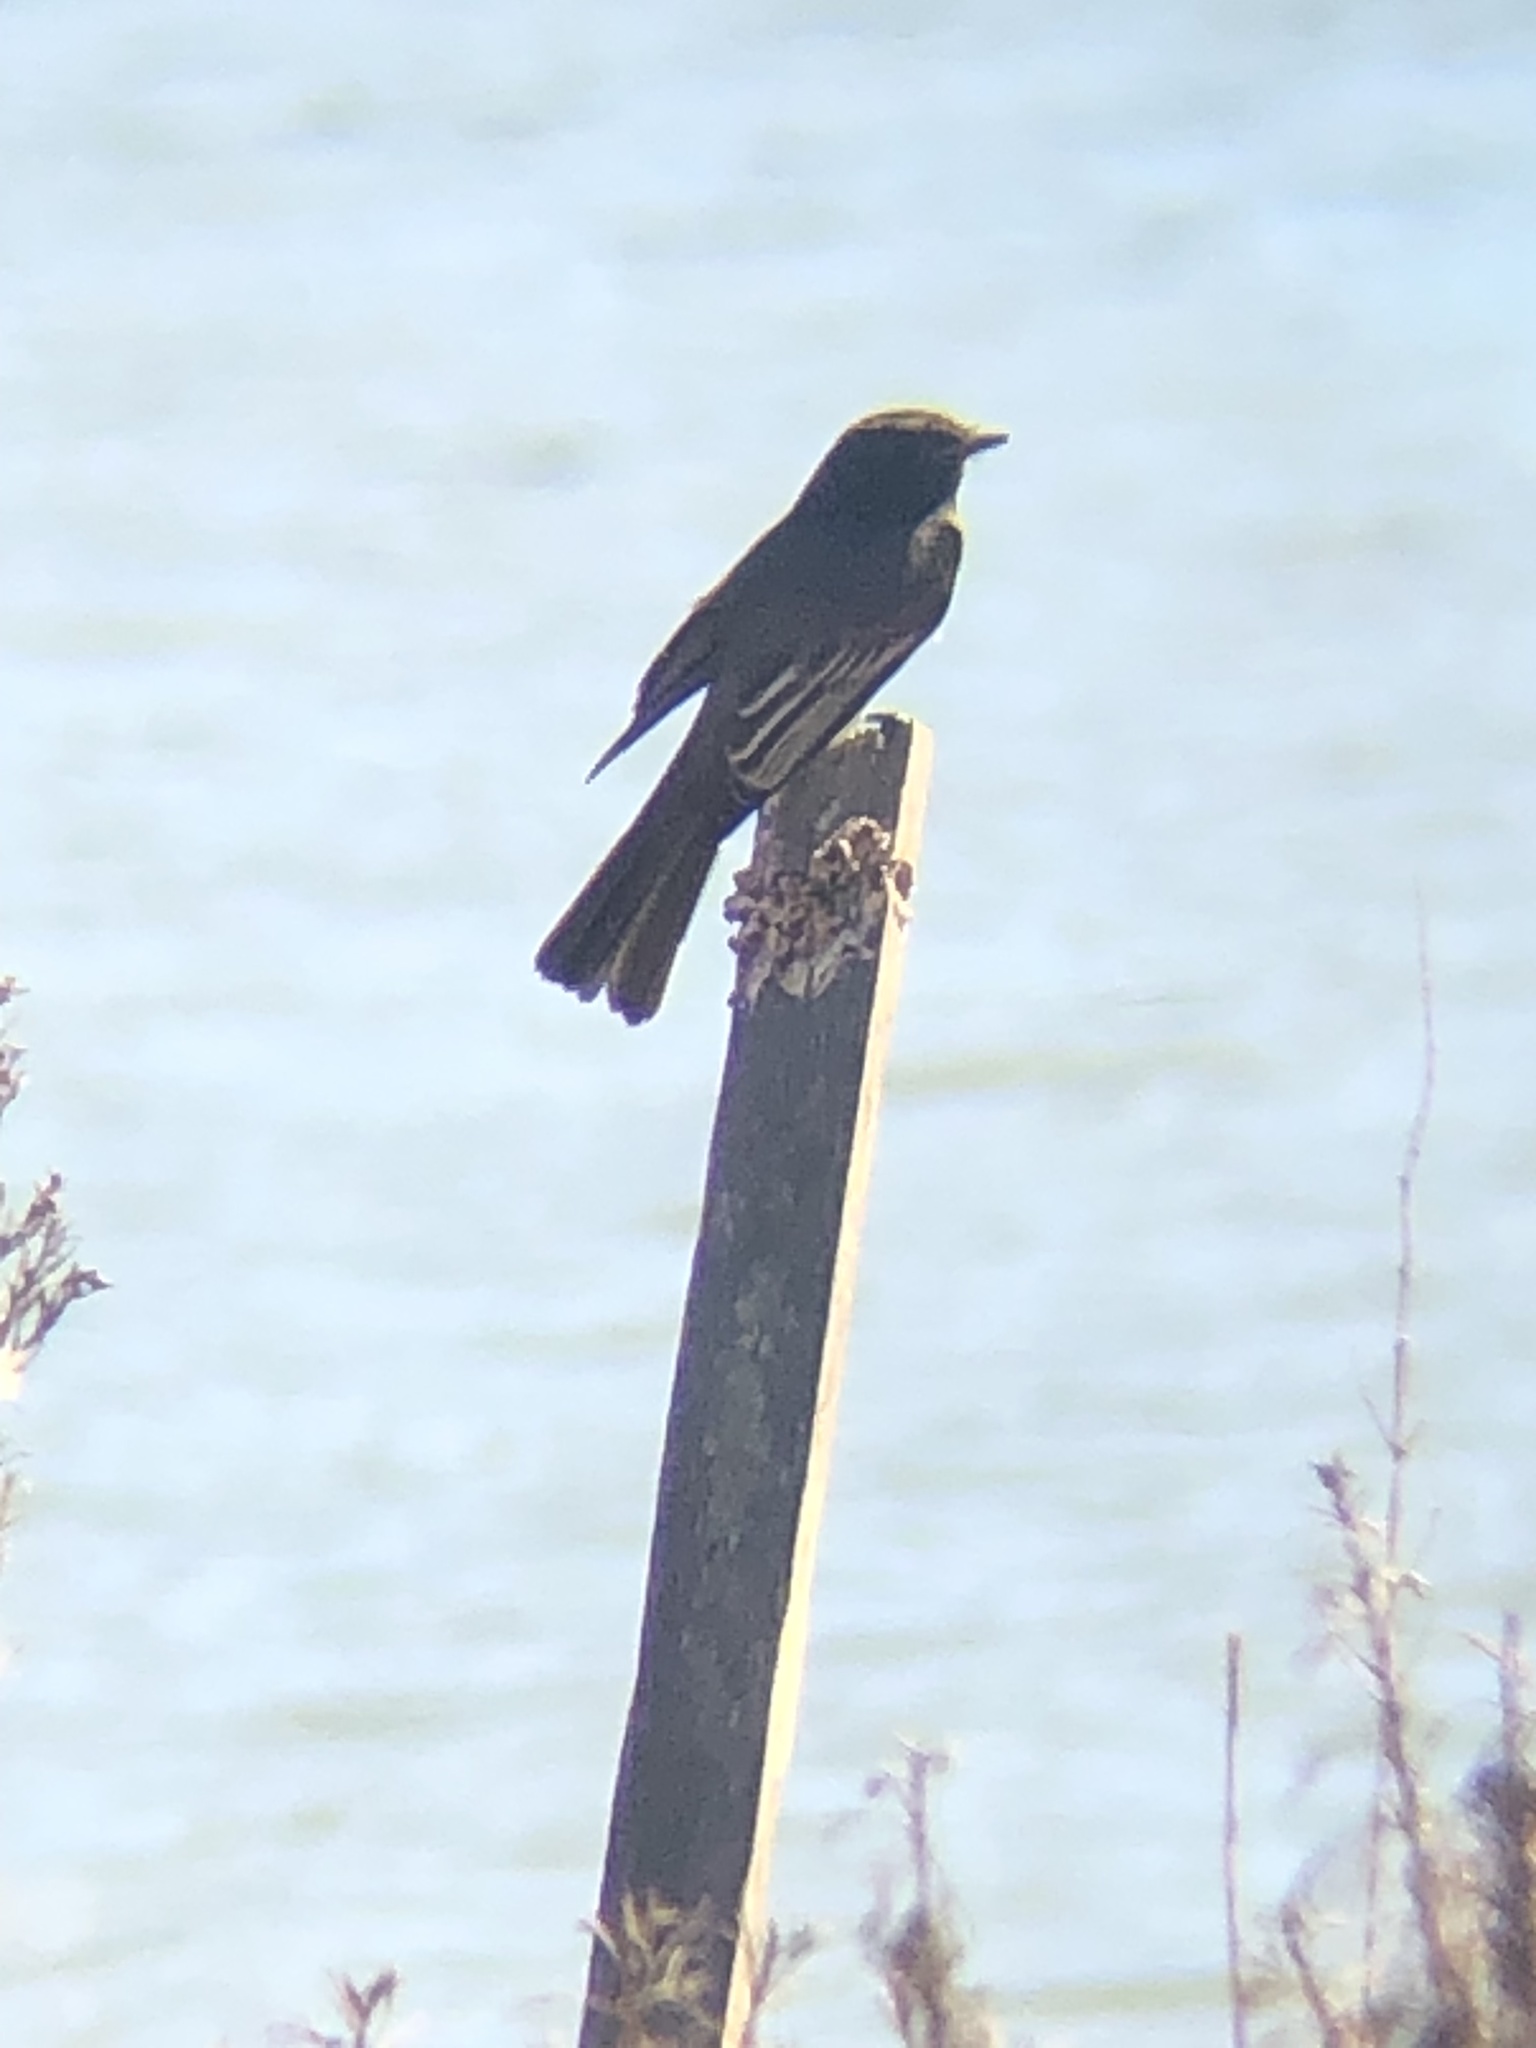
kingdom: Animalia
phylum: Chordata
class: Aves
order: Passeriformes
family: Tyrannidae
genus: Sayornis
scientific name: Sayornis nigricans
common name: Black phoebe
